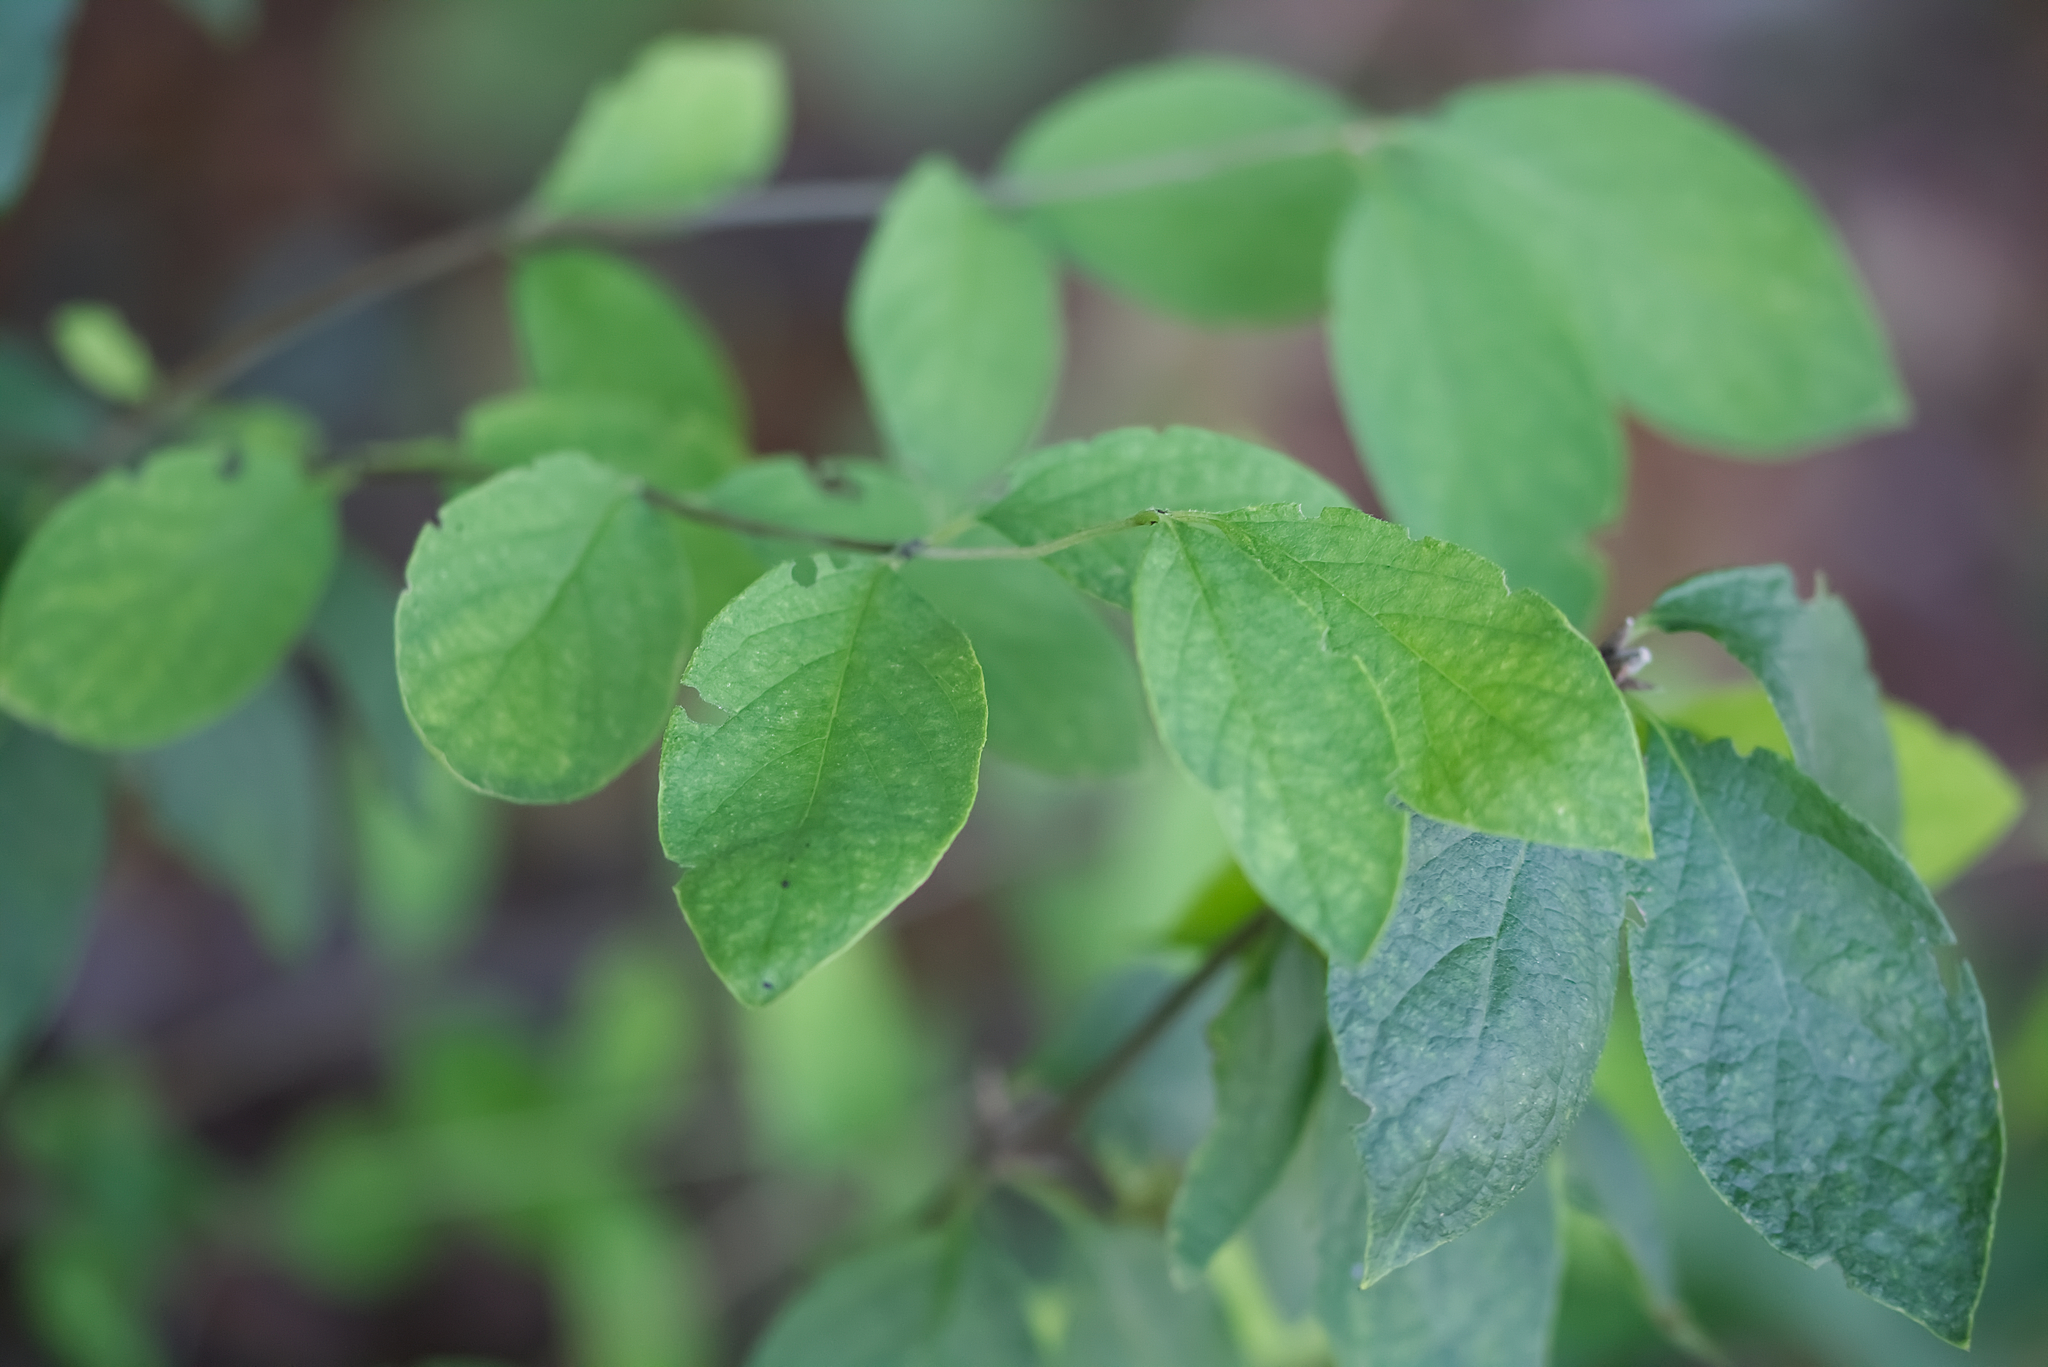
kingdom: Plantae
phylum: Tracheophyta
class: Magnoliopsida
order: Dipsacales
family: Caprifoliaceae
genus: Lonicera
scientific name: Lonicera xylosteum
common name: Fly honeysuckle
